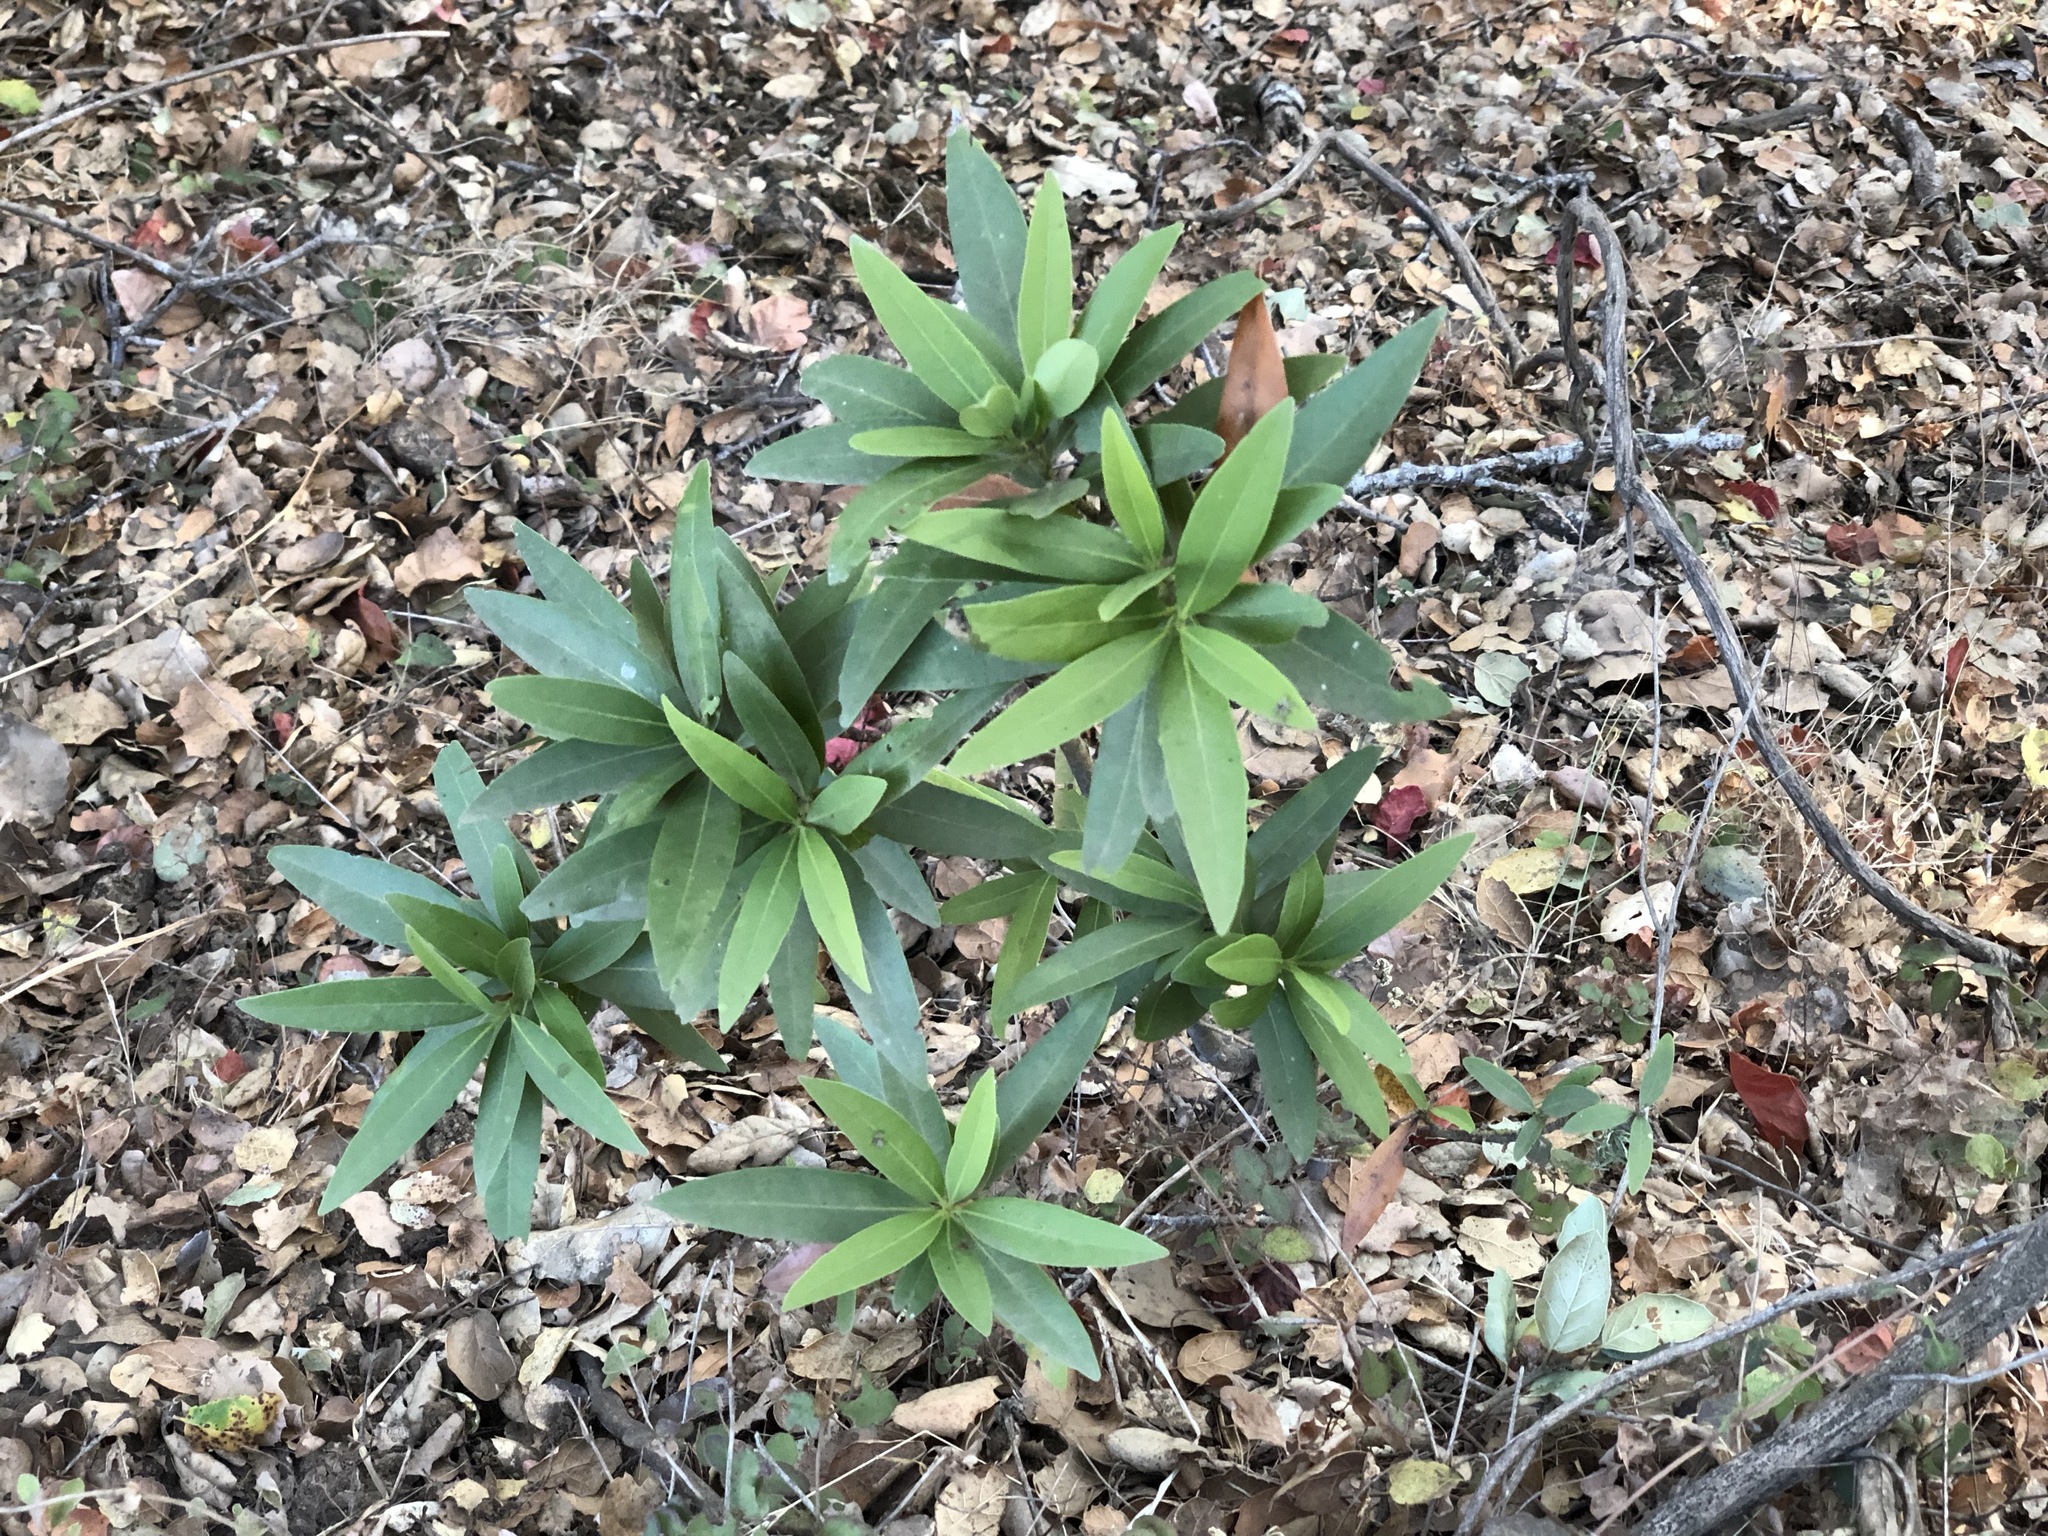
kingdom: Plantae
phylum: Tracheophyta
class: Magnoliopsida
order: Laurales
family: Lauraceae
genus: Umbellularia
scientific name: Umbellularia californica
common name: California bay
